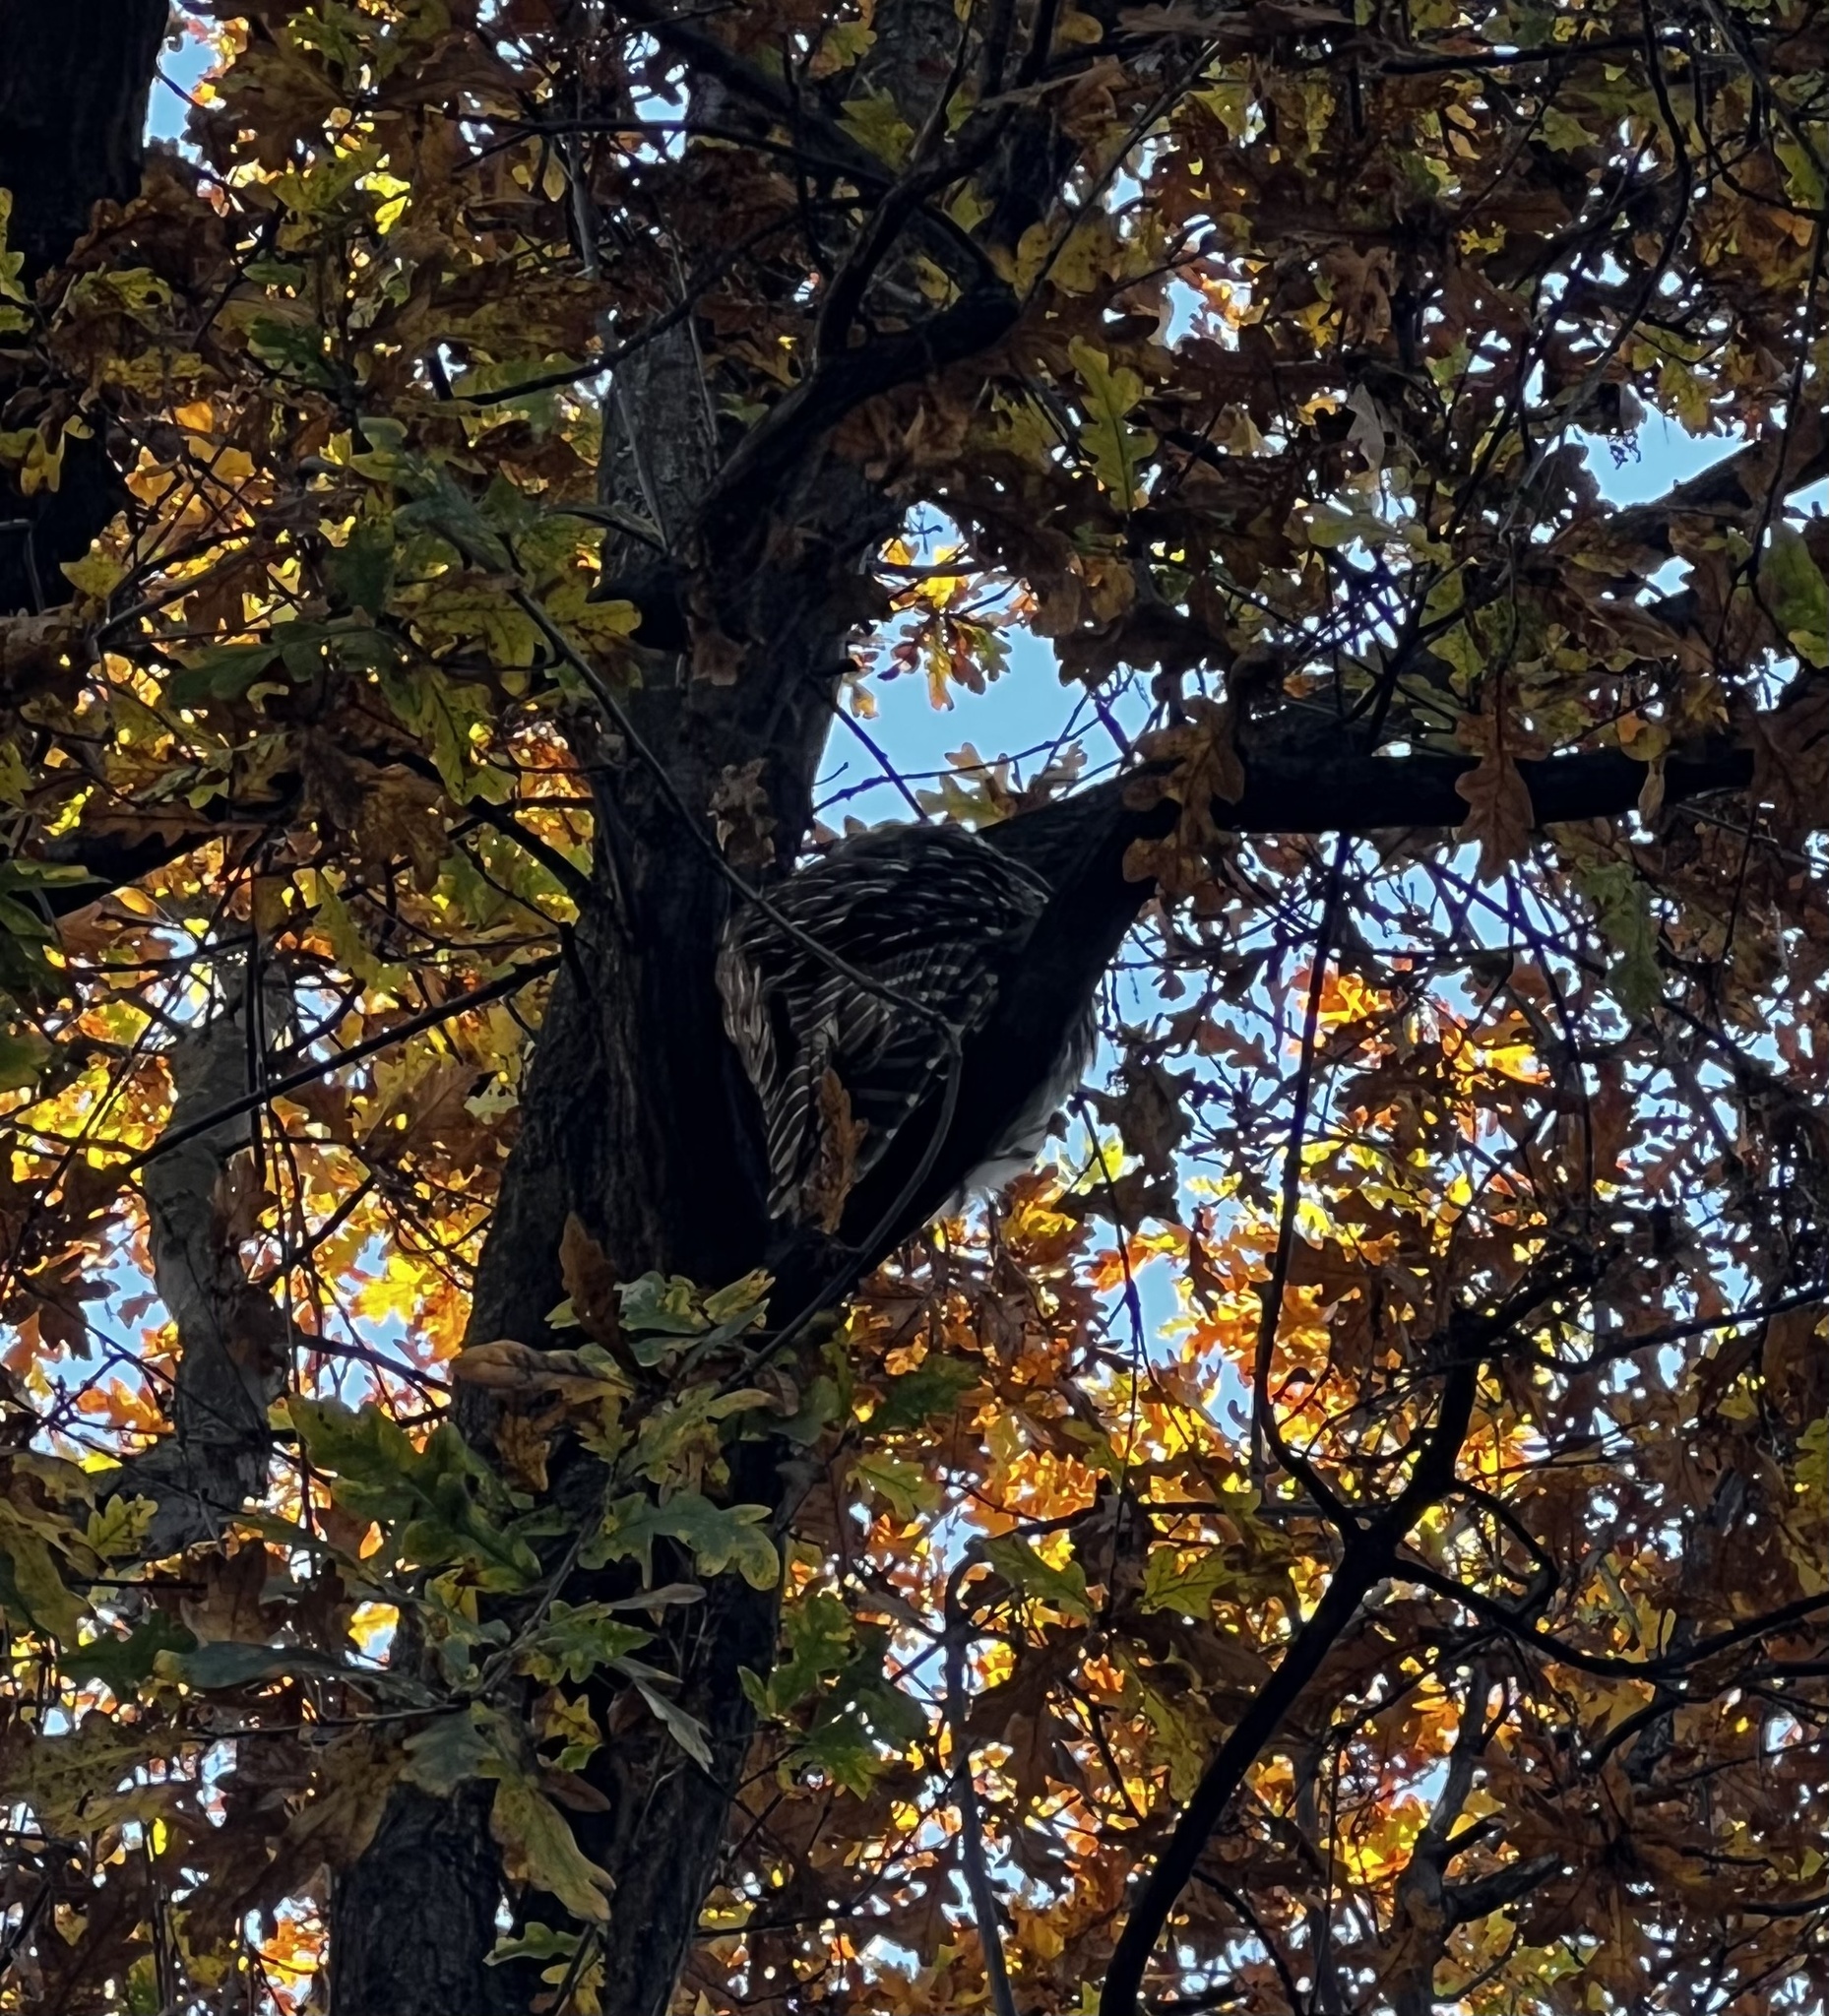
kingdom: Animalia
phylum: Chordata
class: Aves
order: Strigiformes
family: Strigidae
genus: Strix
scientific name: Strix varia
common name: Barred owl
